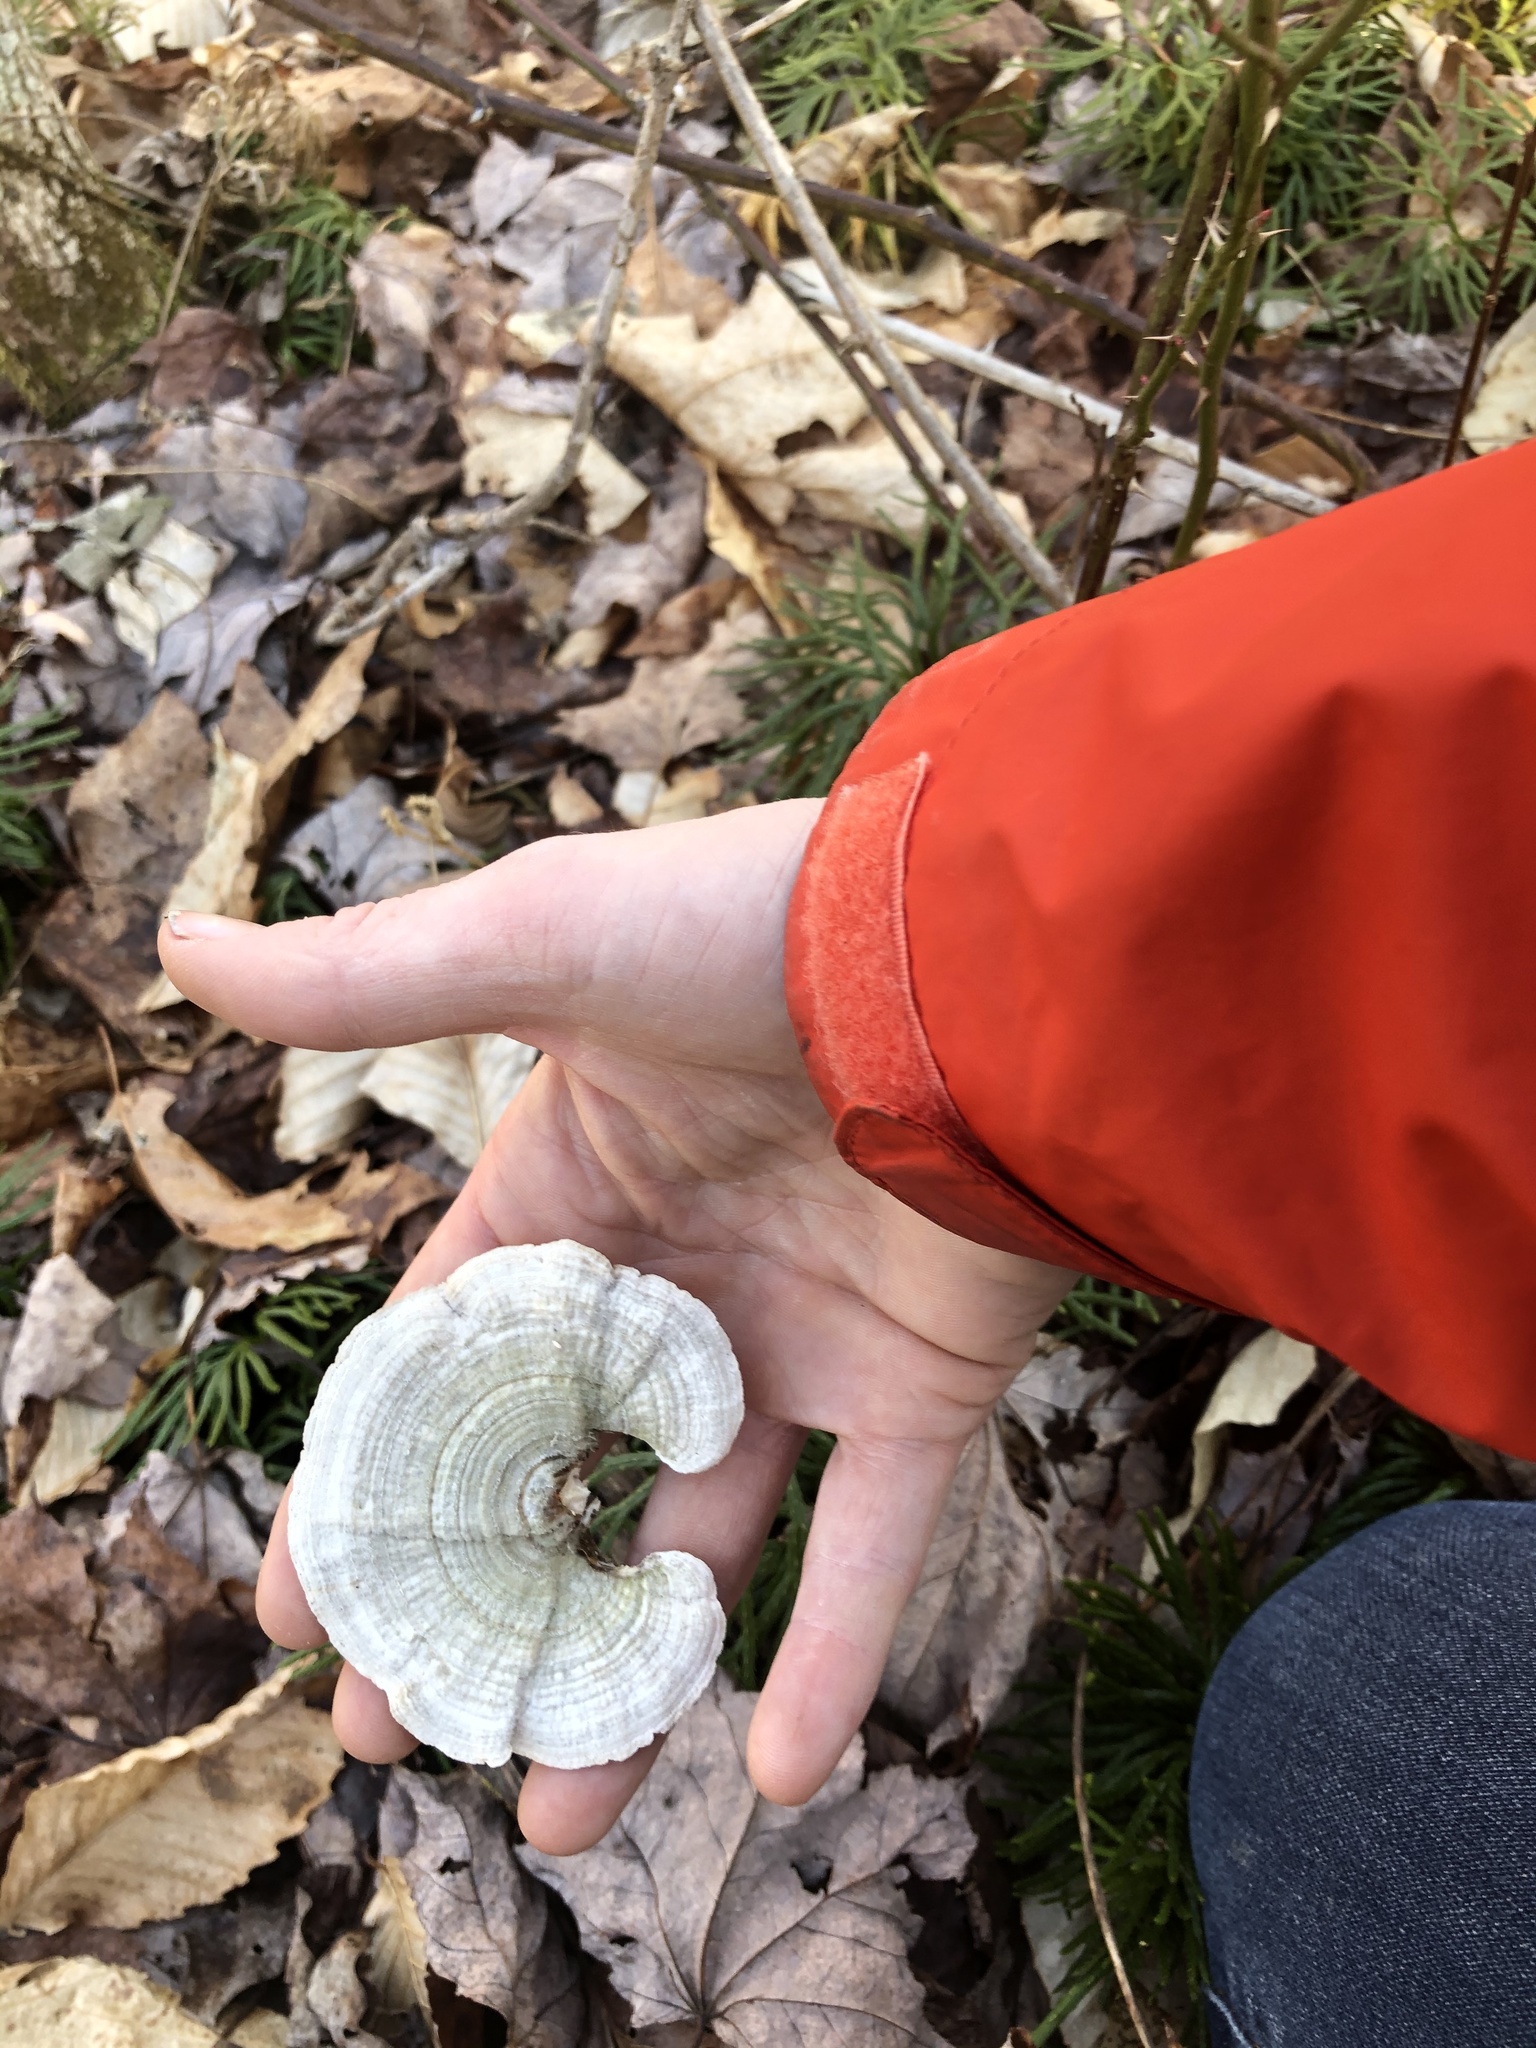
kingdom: Fungi
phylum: Basidiomycota
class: Agaricomycetes
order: Polyporales
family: Polyporaceae
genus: Lenzites
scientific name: Lenzites betulinus
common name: Birch mazegill
